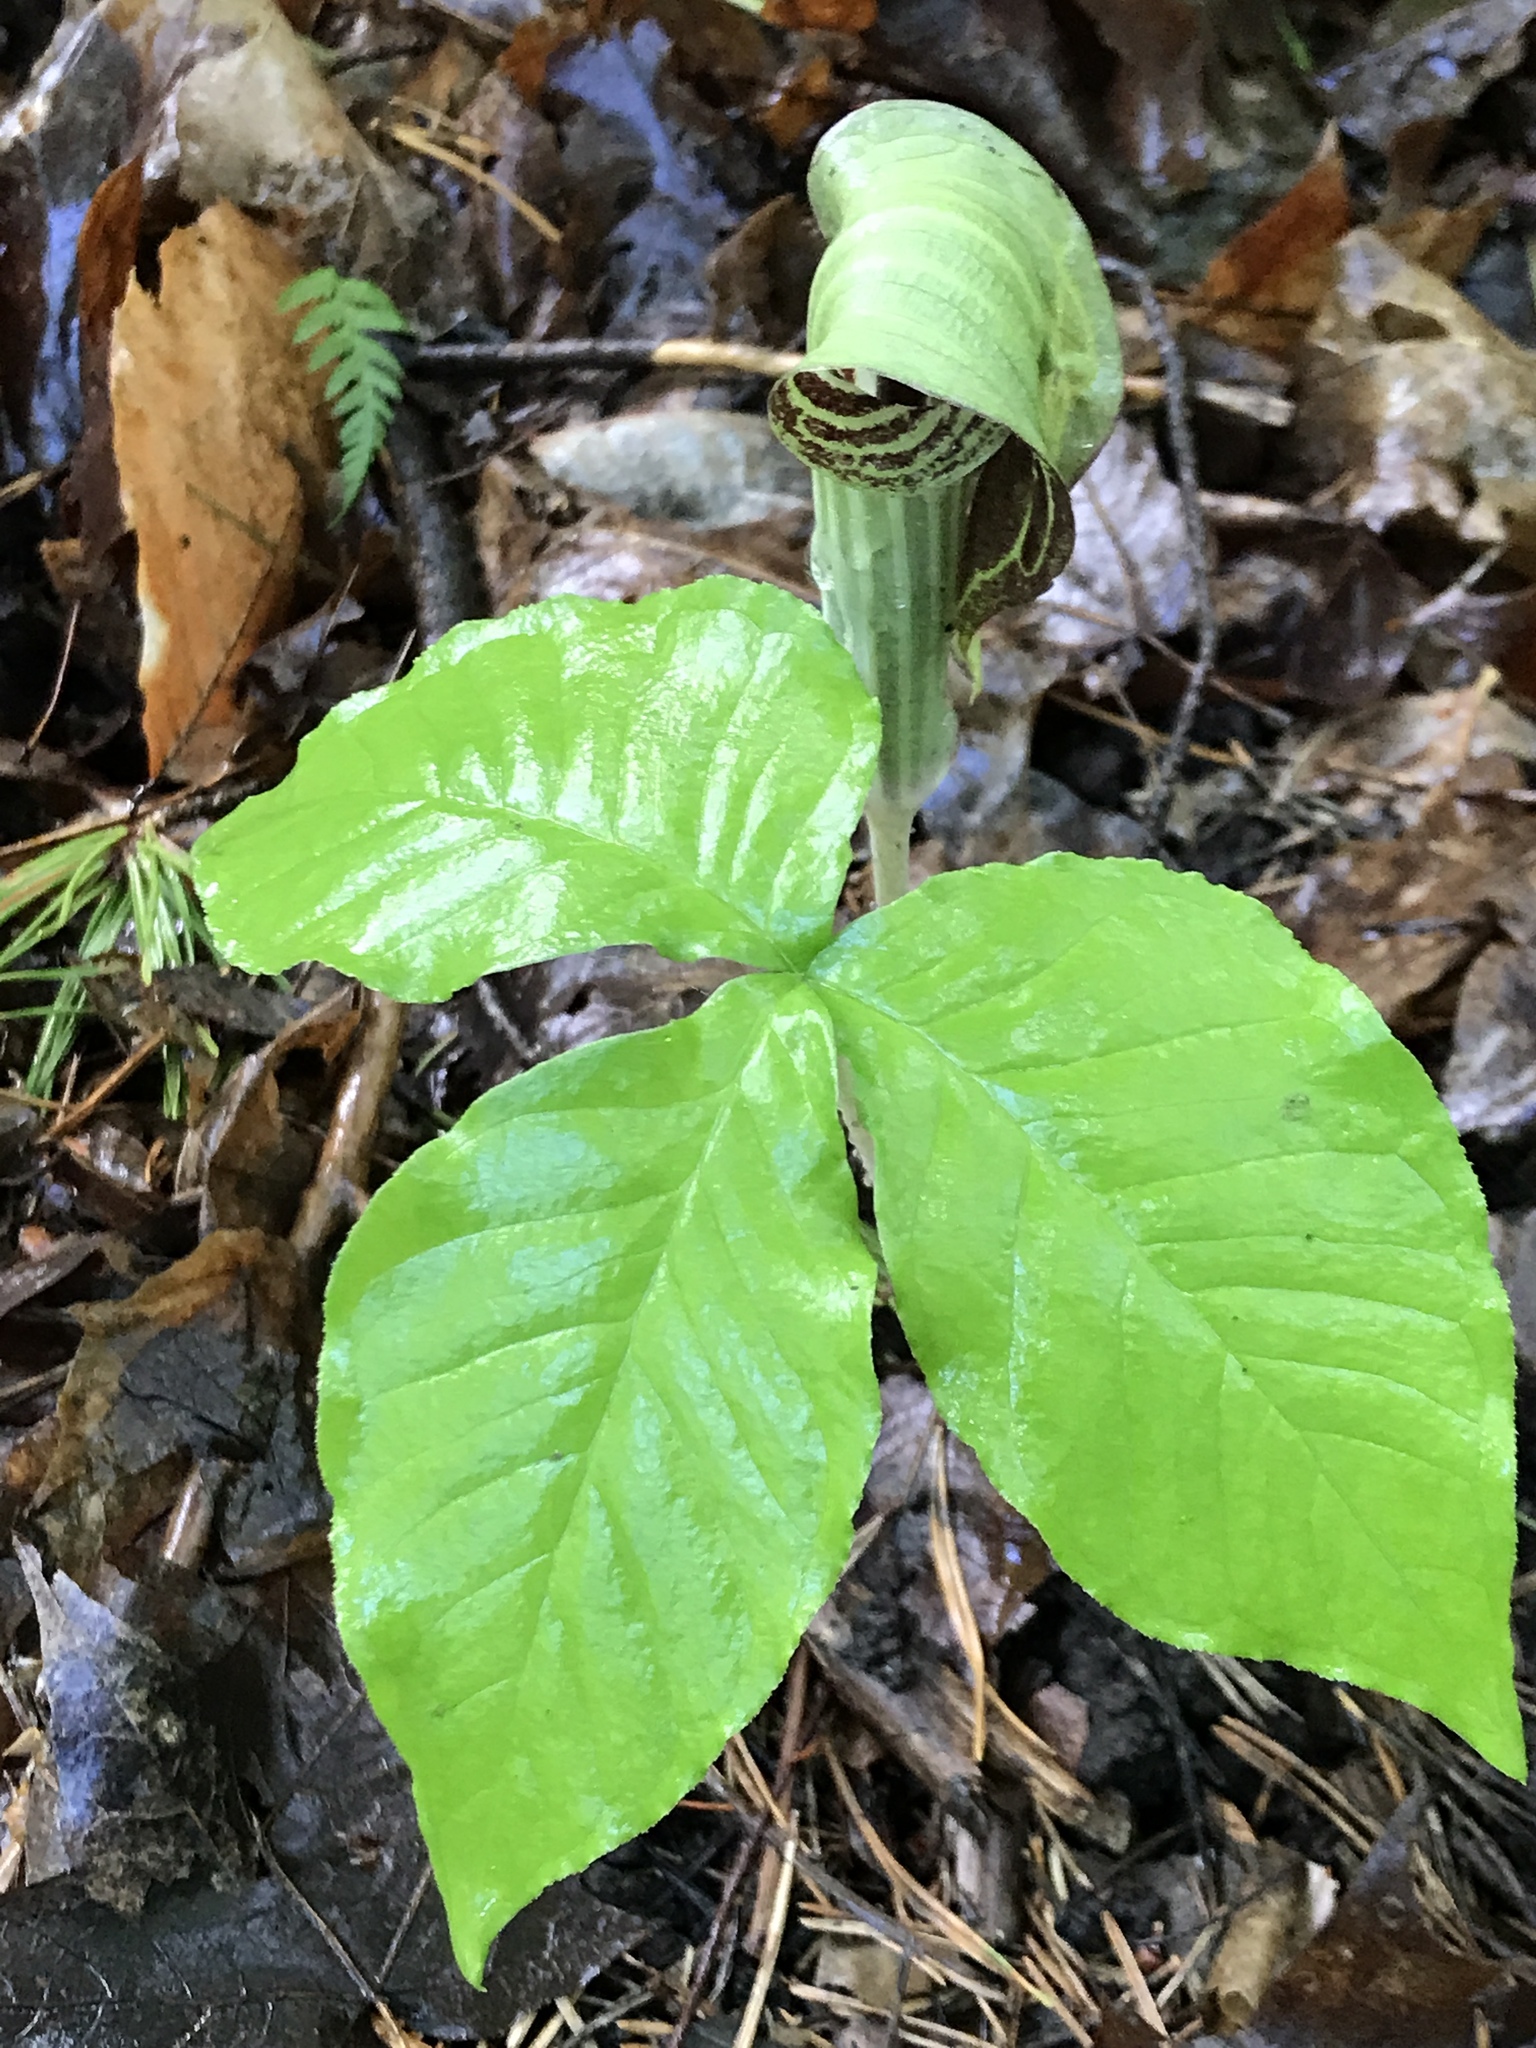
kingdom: Plantae
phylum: Tracheophyta
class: Liliopsida
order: Alismatales
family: Araceae
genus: Arisaema
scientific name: Arisaema triphyllum
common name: Jack-in-the-pulpit
